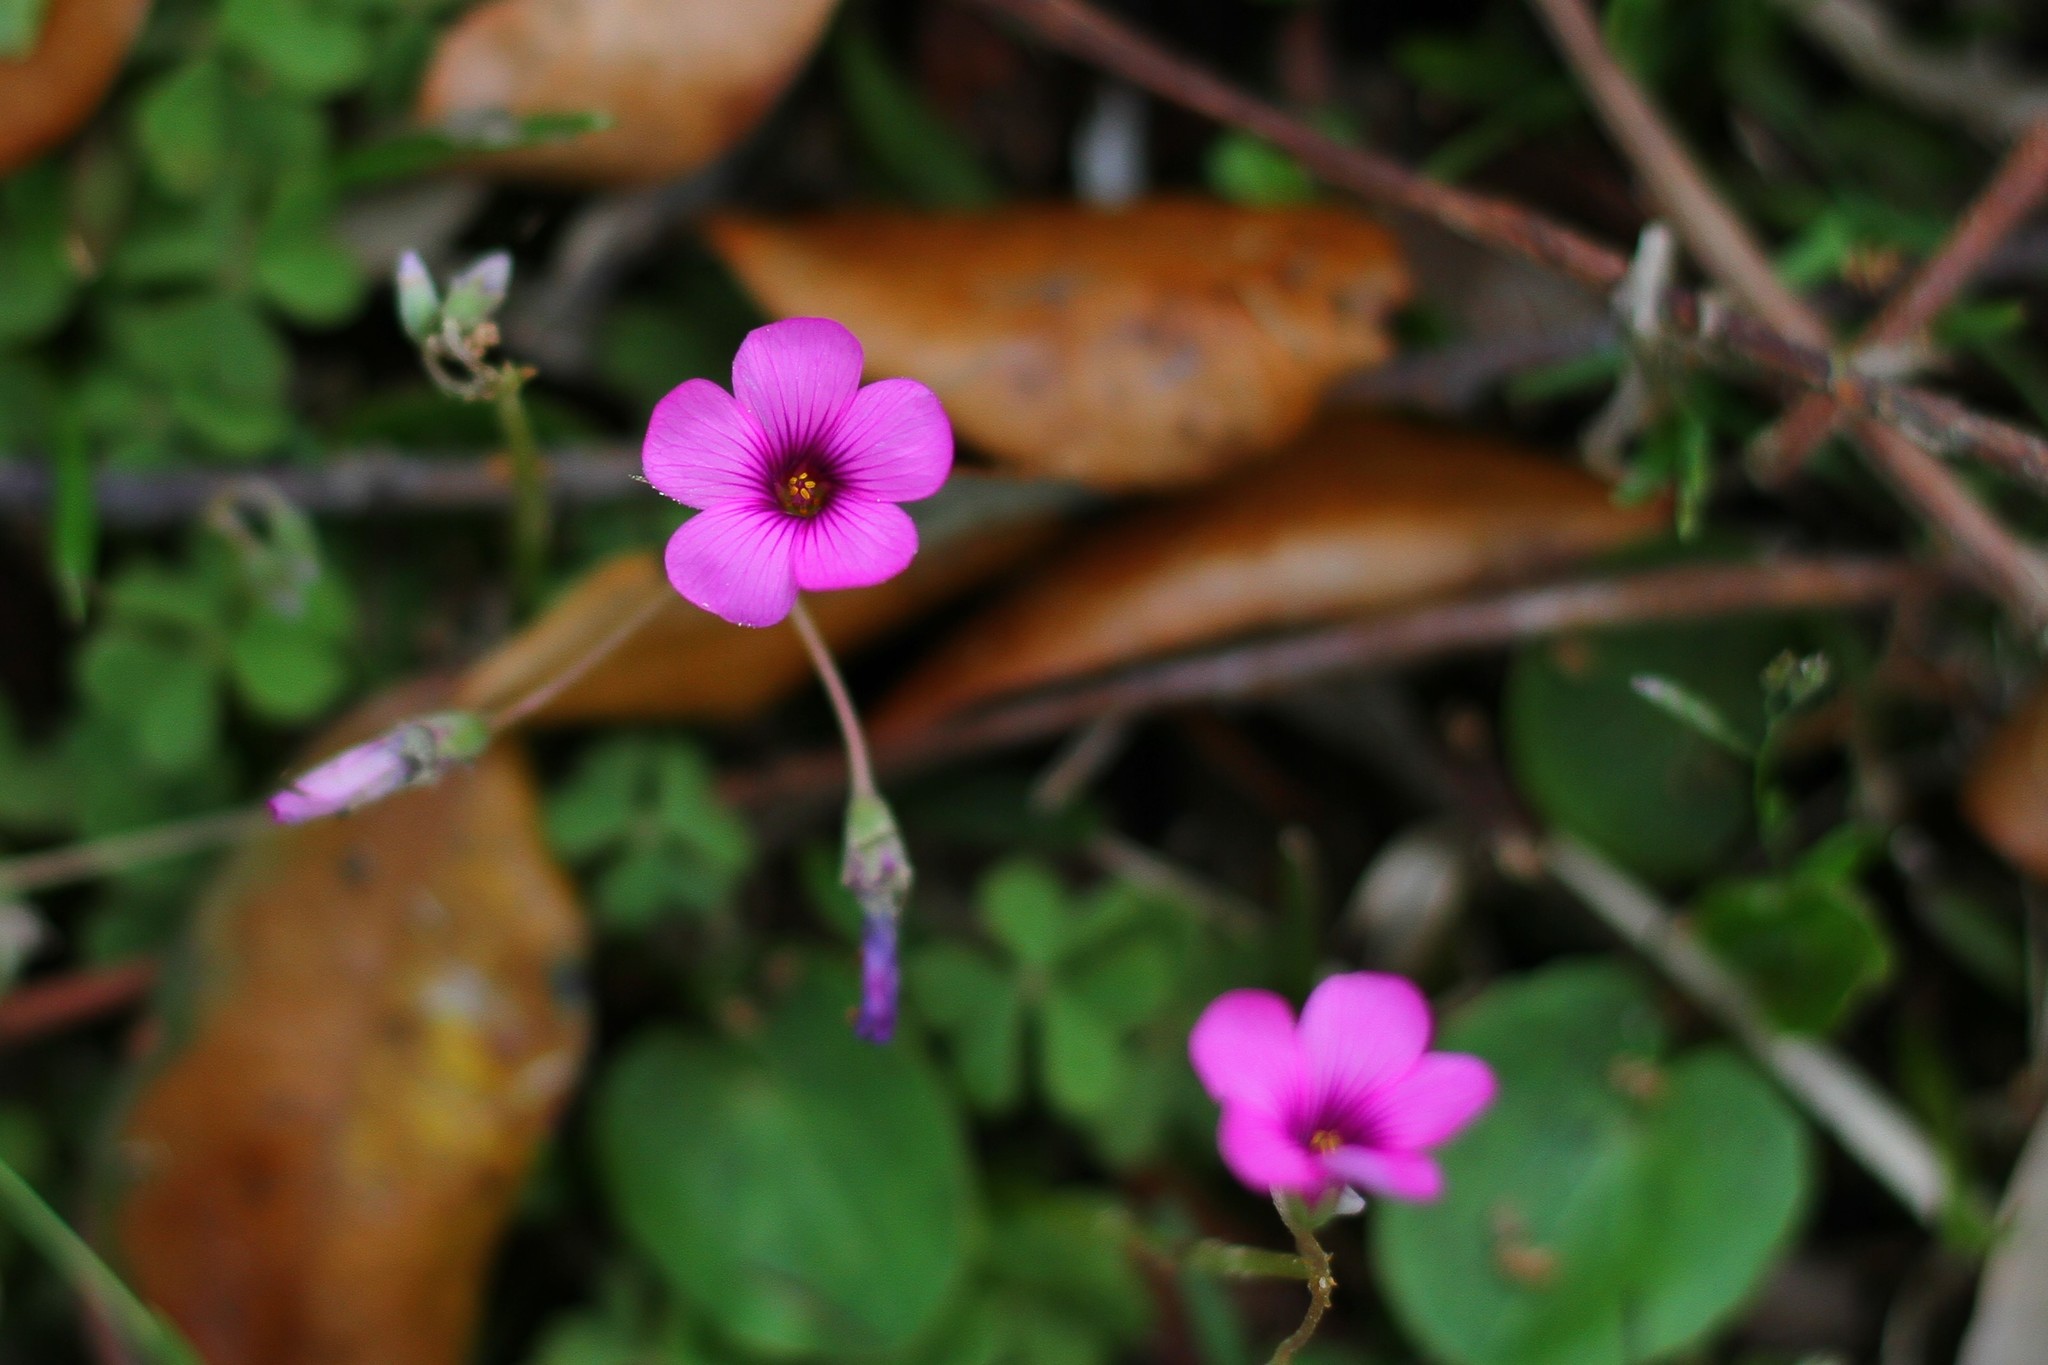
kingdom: Plantae
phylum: Tracheophyta
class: Magnoliopsida
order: Oxalidales
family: Oxalidaceae
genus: Oxalis
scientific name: Oxalis articulata
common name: Pink-sorrel
